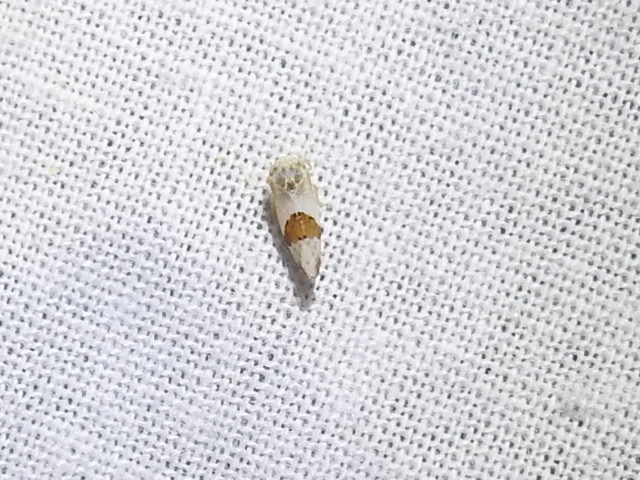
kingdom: Animalia
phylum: Arthropoda
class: Insecta
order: Hemiptera
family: Cicadellidae
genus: Norvellina
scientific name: Norvellina seminuda
